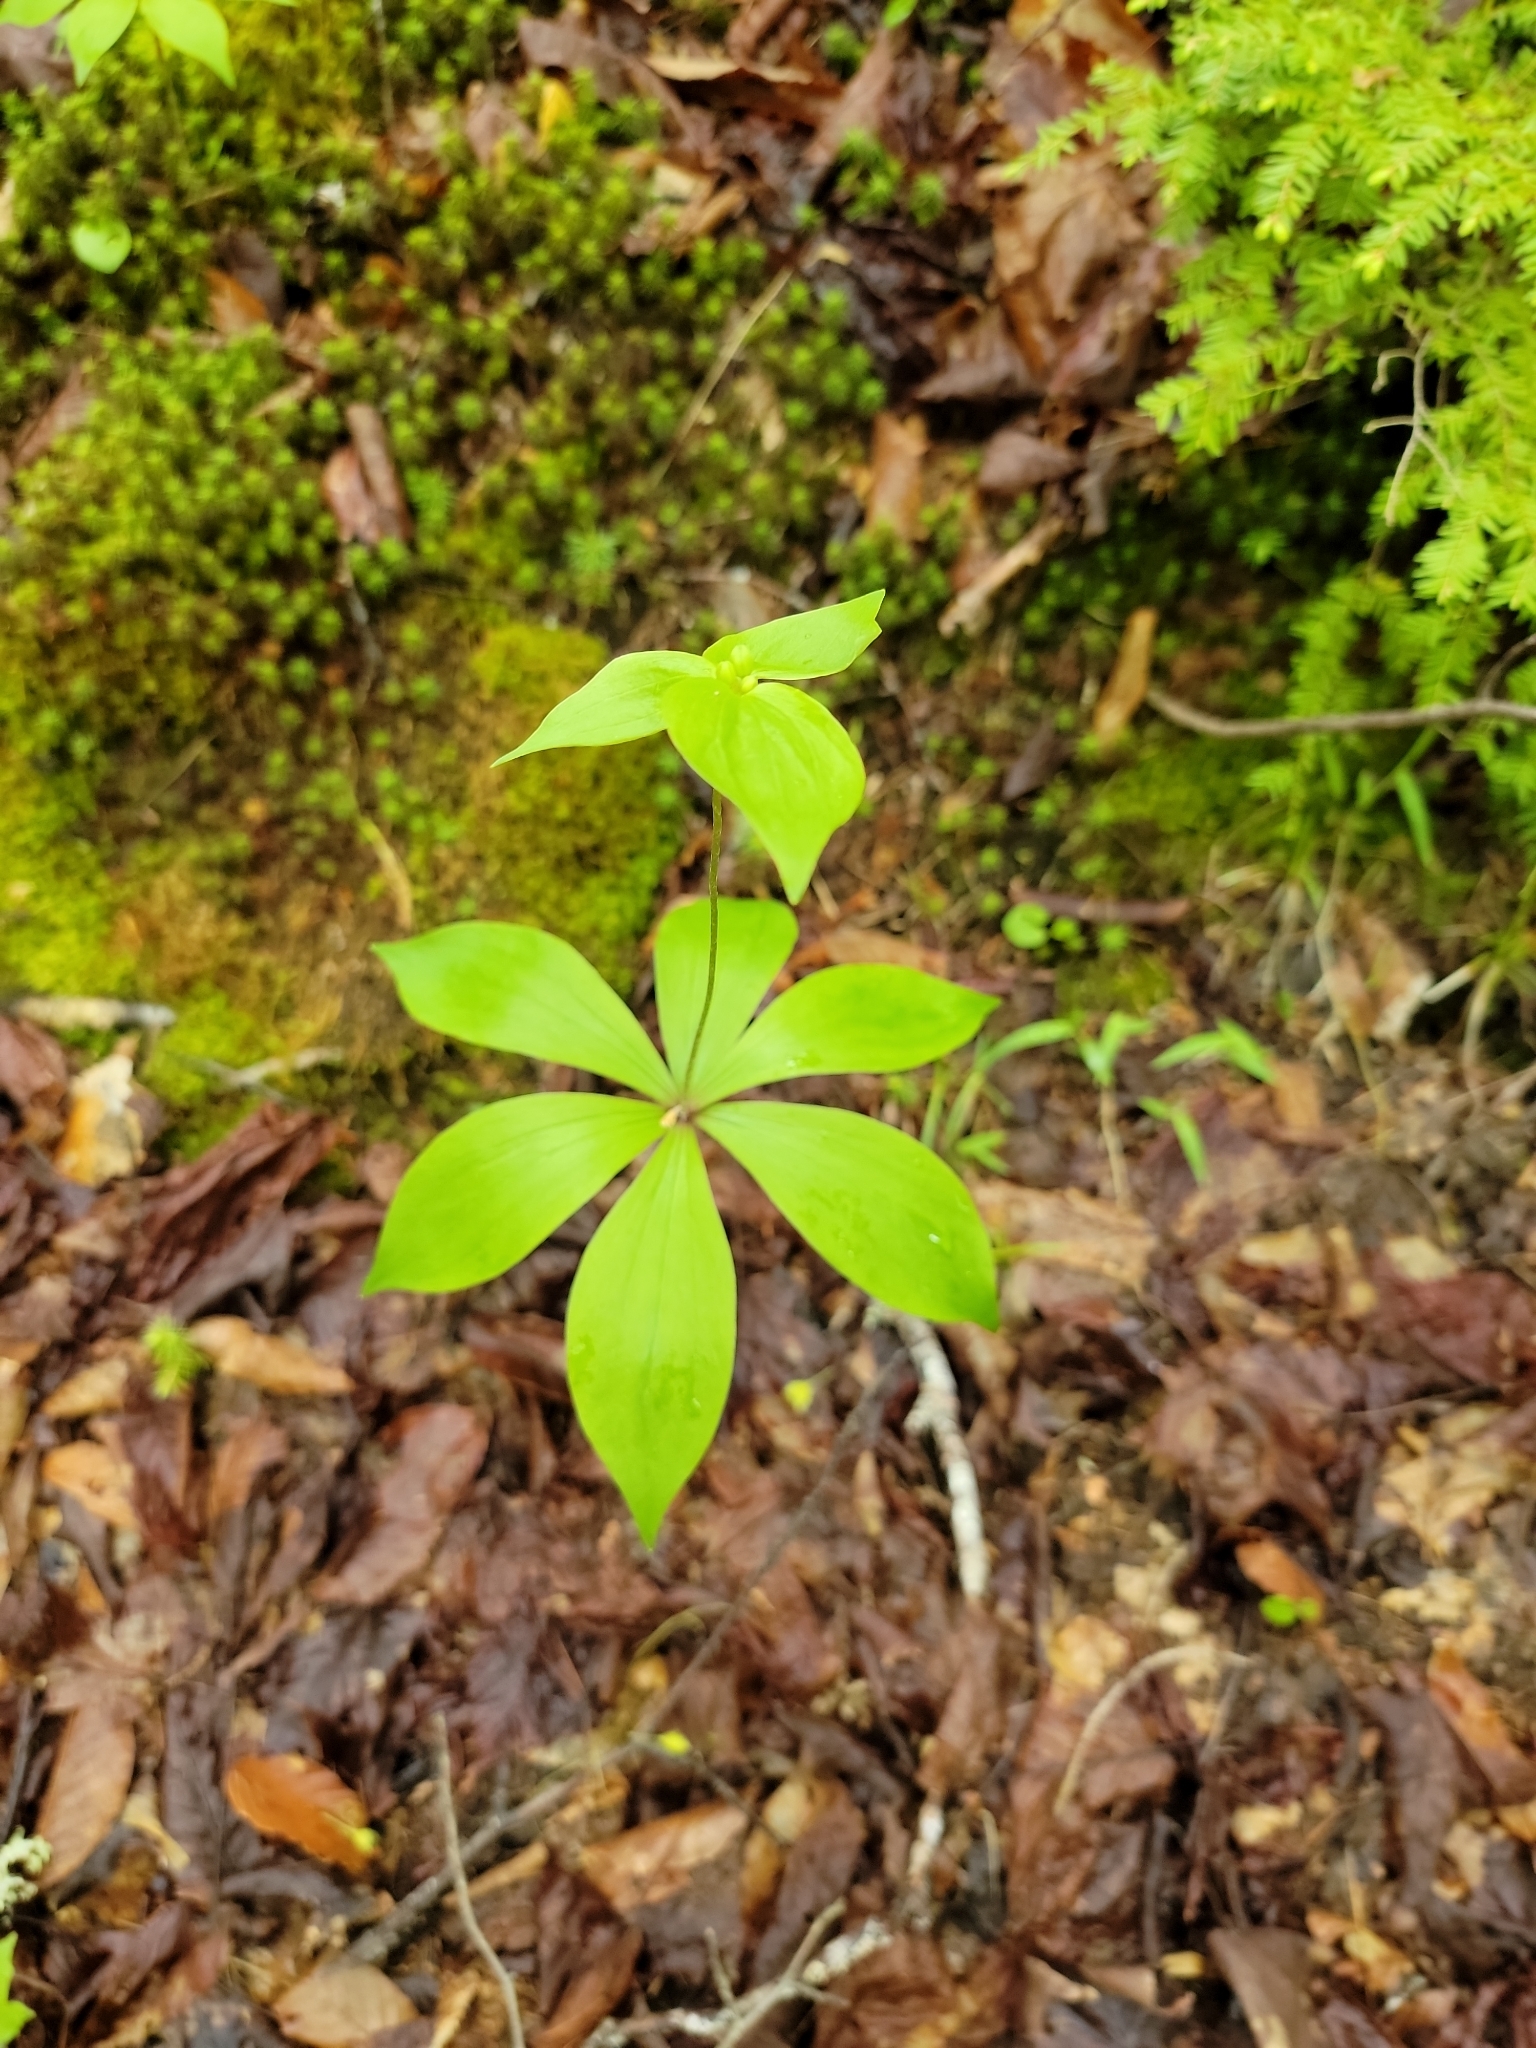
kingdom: Plantae
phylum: Tracheophyta
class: Liliopsida
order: Liliales
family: Liliaceae
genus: Medeola
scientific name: Medeola virginiana
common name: Indian cucumber-root
